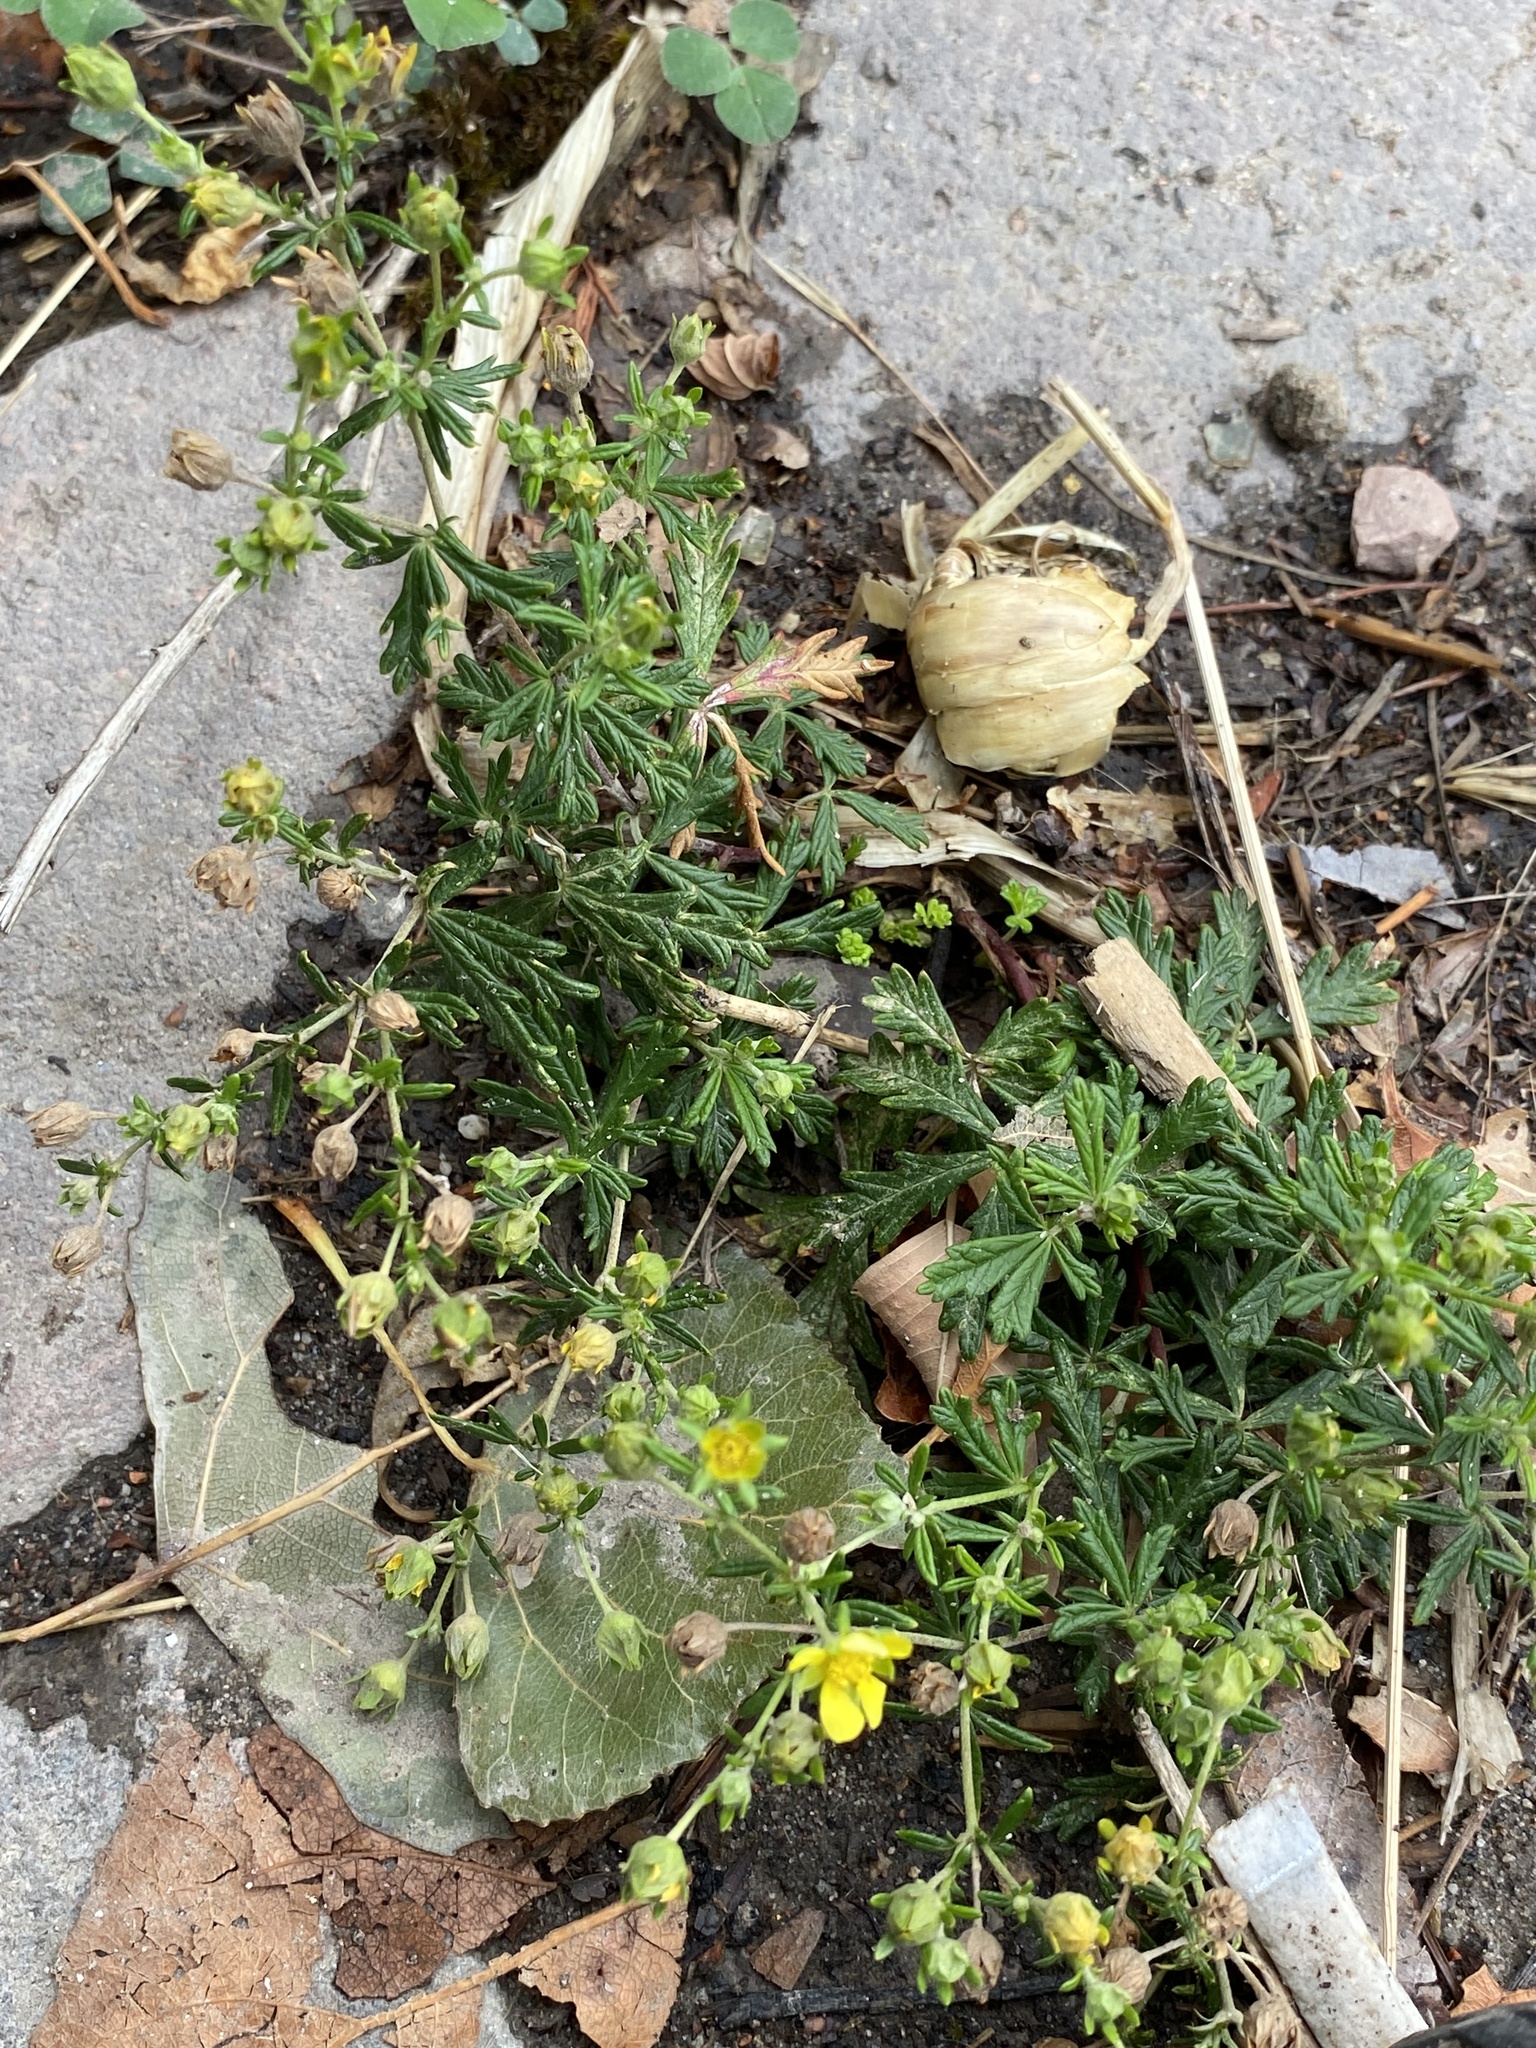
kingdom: Plantae
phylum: Tracheophyta
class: Magnoliopsida
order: Rosales
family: Rosaceae
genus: Potentilla
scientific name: Potentilla erecta
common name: Tormentil
